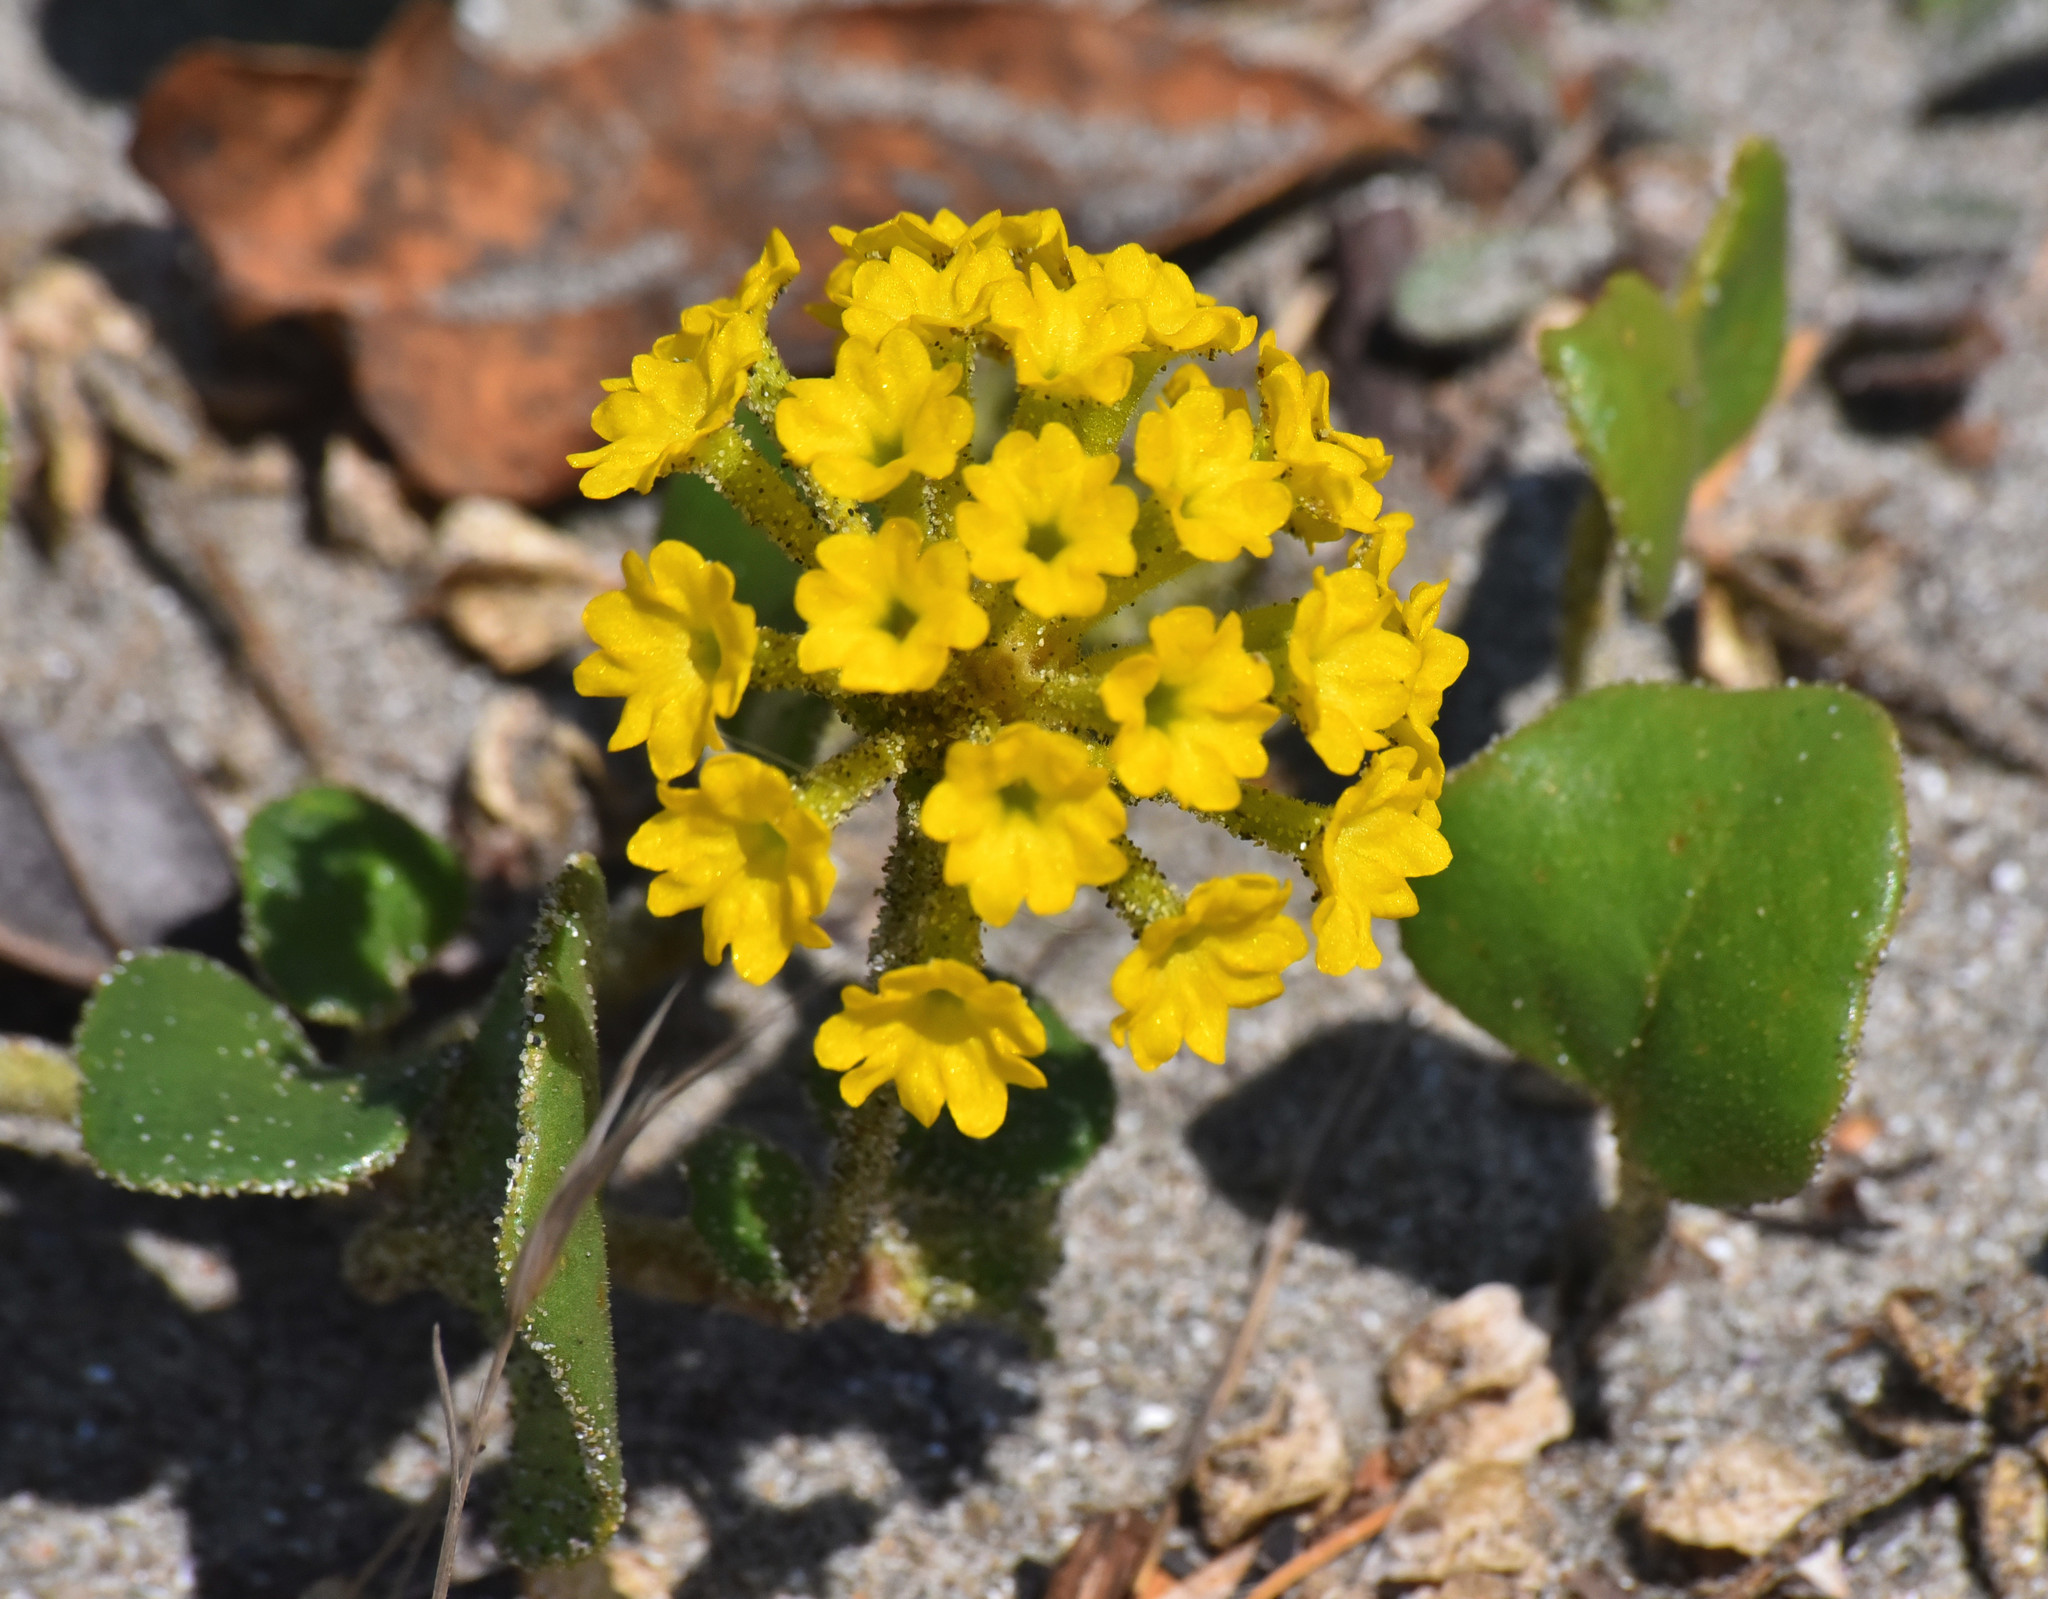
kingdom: Plantae
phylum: Tracheophyta
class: Magnoliopsida
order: Caryophyllales
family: Nyctaginaceae
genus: Abronia
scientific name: Abronia latifolia
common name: Yellow sand-verbena
